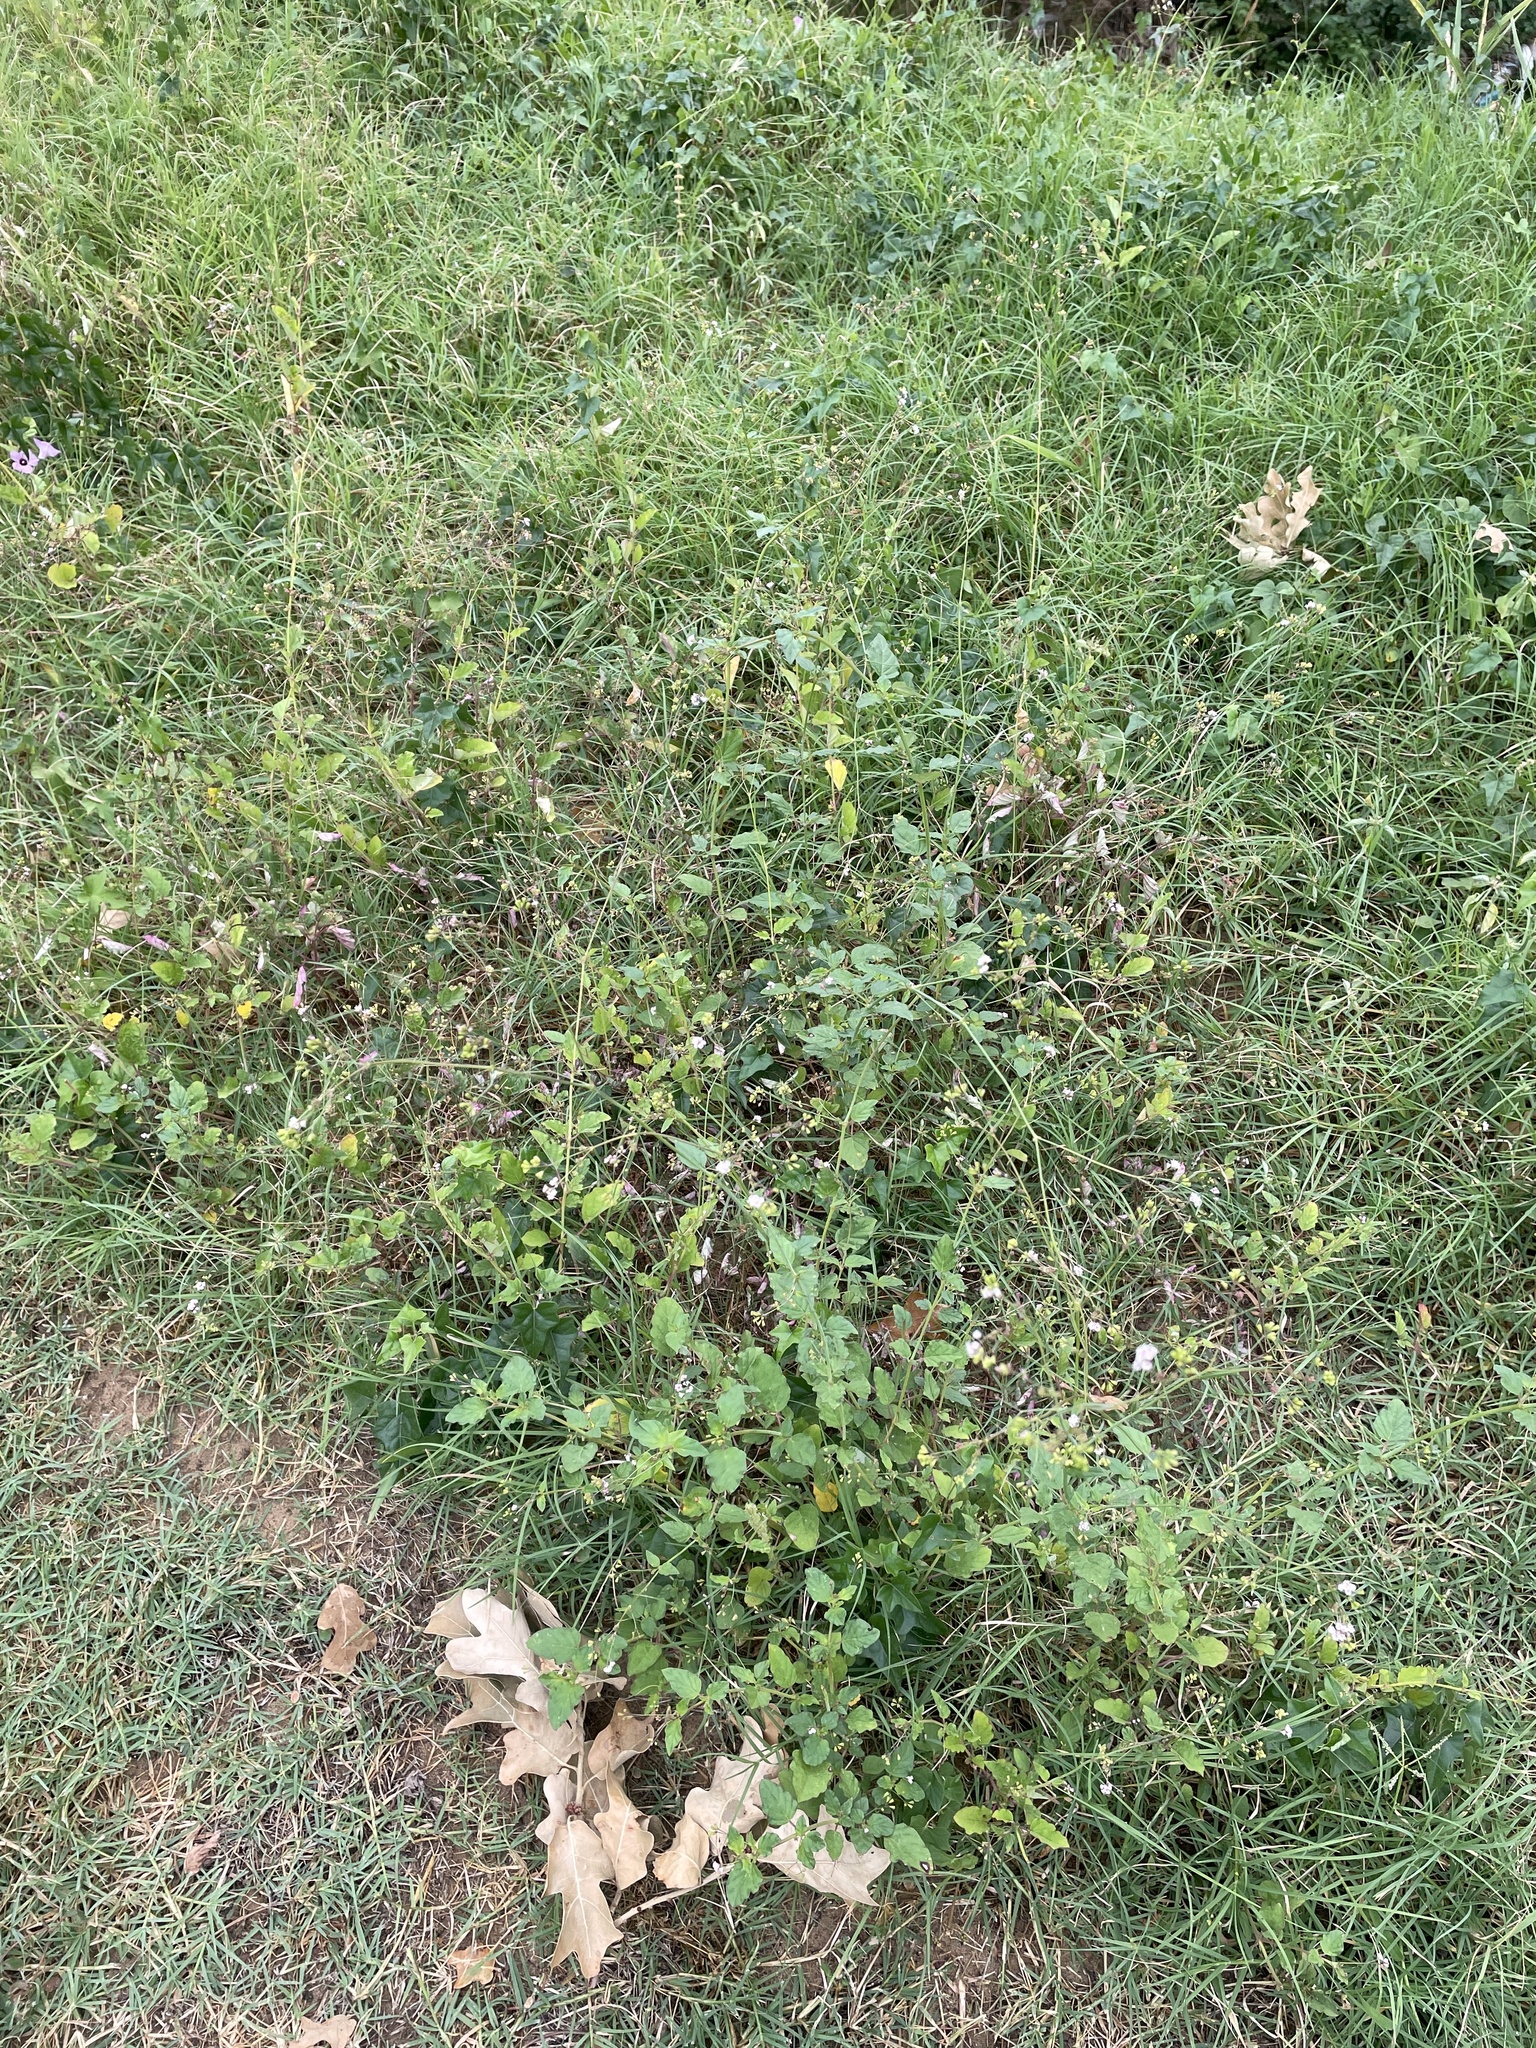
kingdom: Plantae
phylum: Tracheophyta
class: Magnoliopsida
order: Caryophyllales
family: Nyctaginaceae
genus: Boerhavia
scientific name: Boerhavia erecta
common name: Erect spiderling
